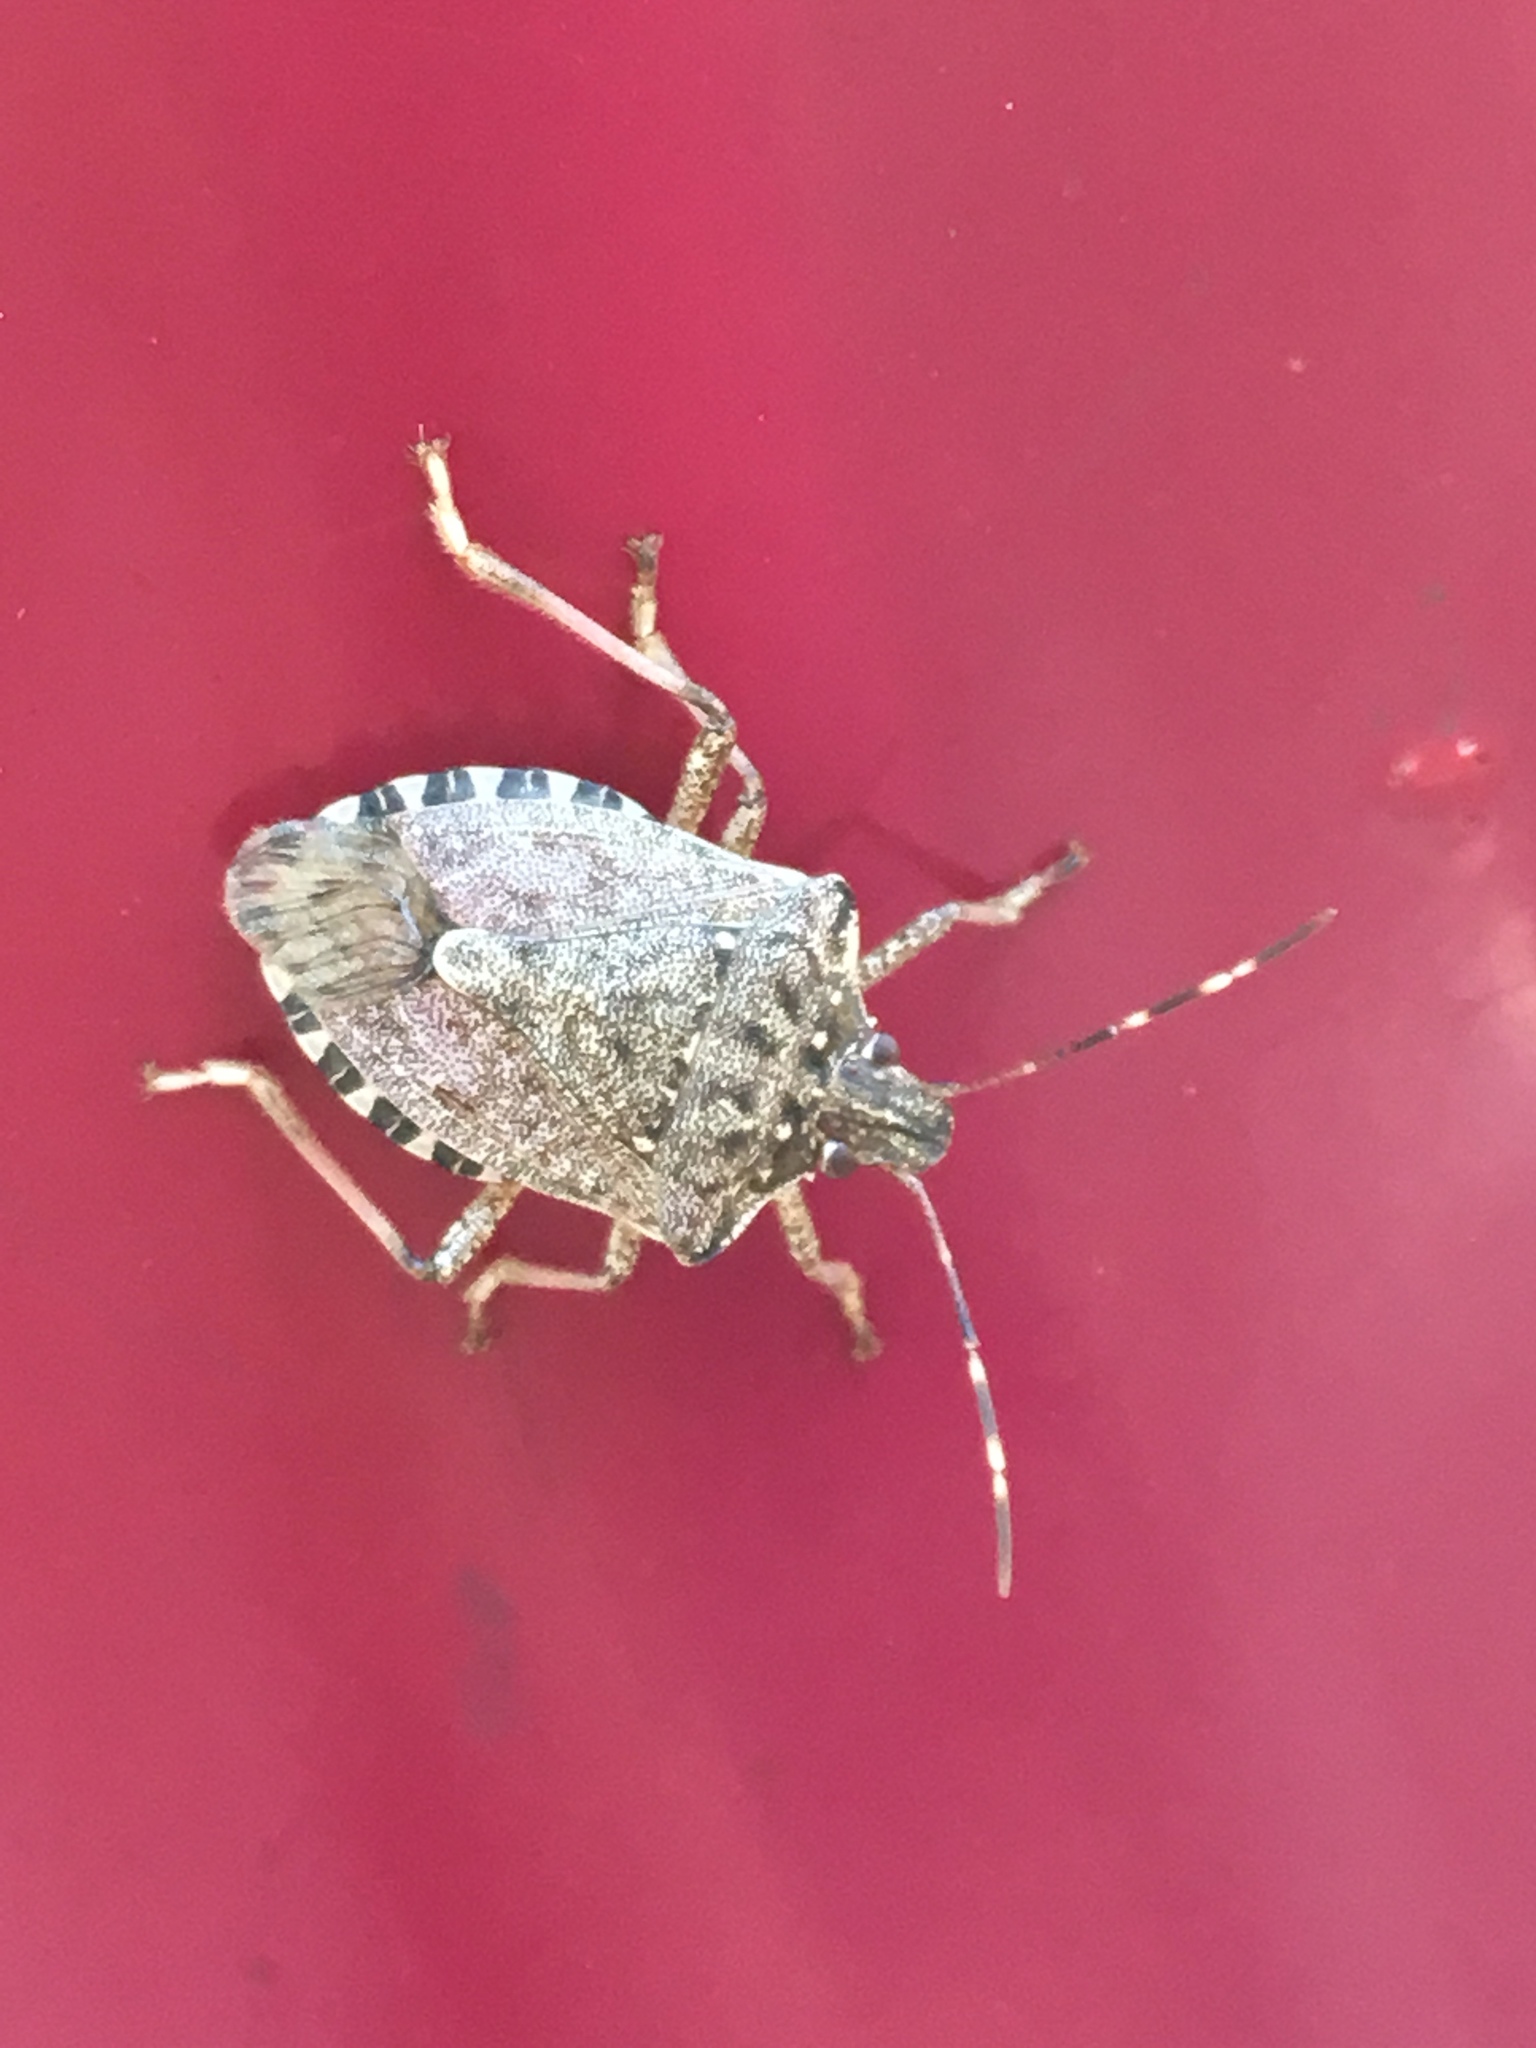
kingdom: Animalia
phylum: Arthropoda
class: Insecta
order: Hemiptera
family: Pentatomidae
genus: Halyomorpha
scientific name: Halyomorpha halys
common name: Brown marmorated stink bug
